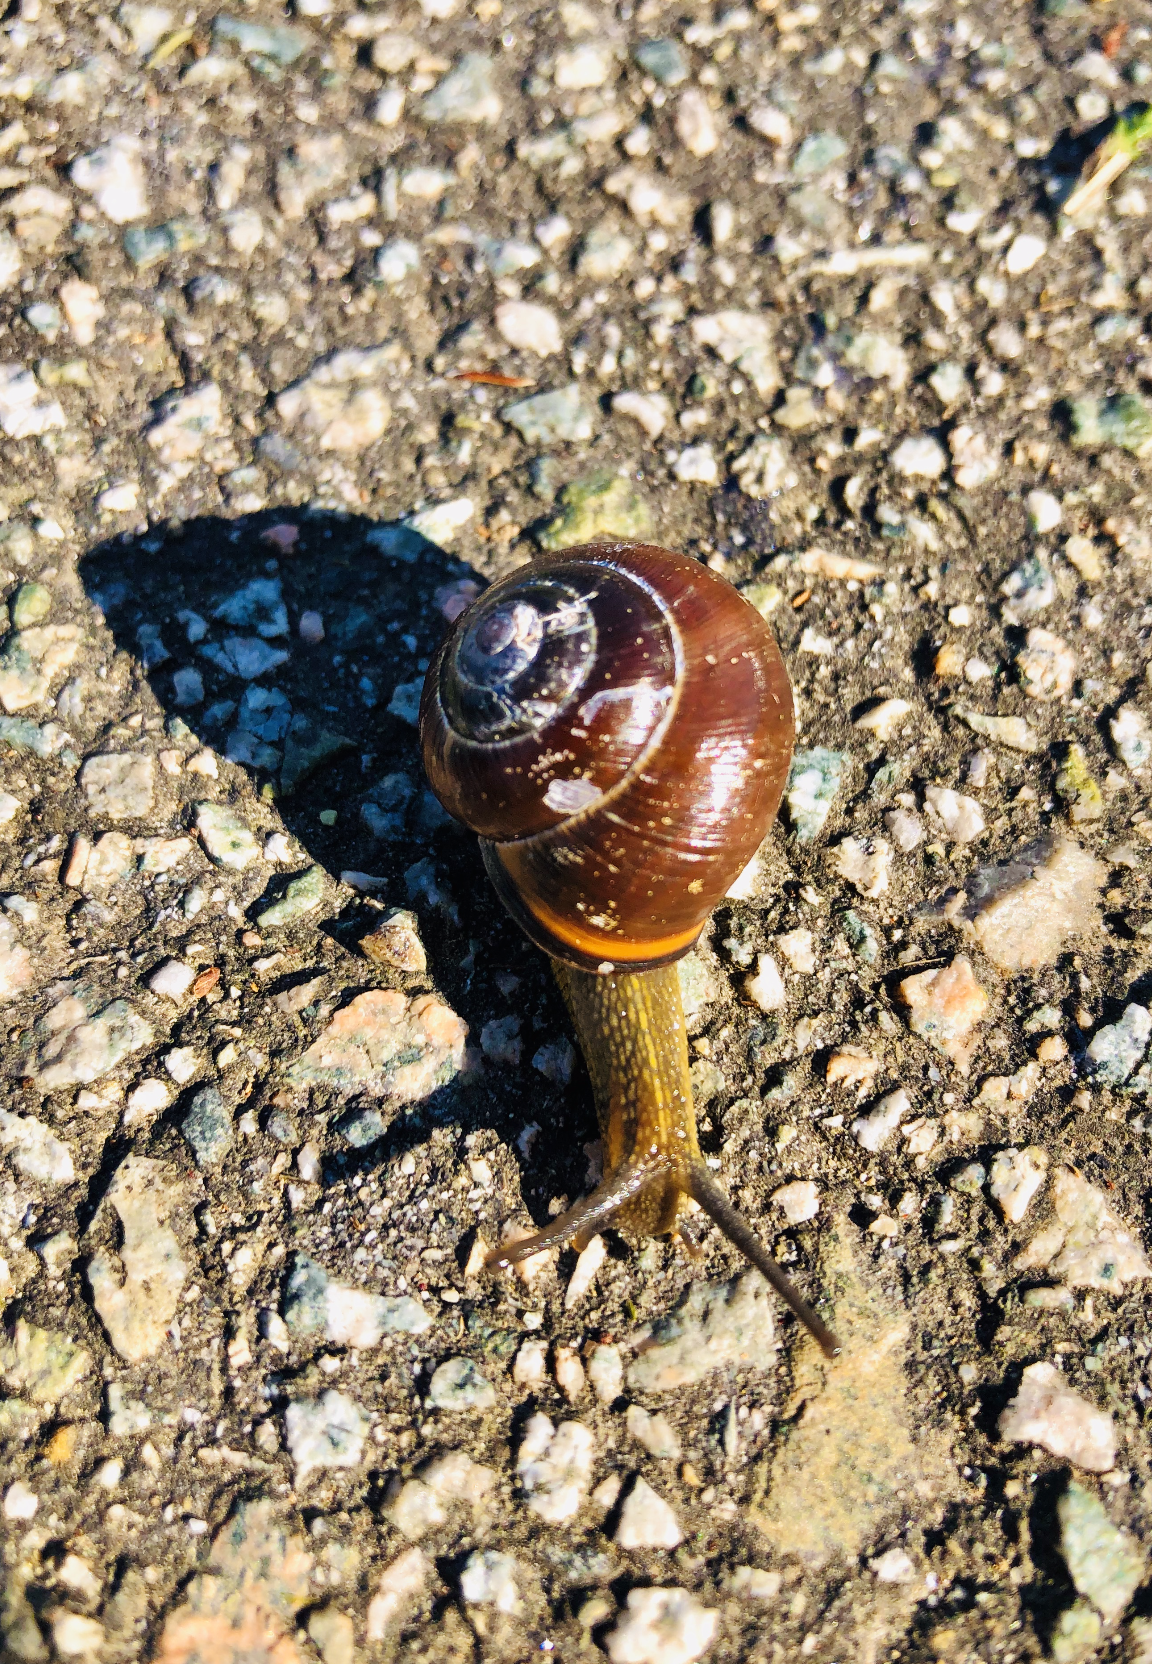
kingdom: Animalia
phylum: Mollusca
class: Gastropoda
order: Stylommatophora
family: Helicidae
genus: Cepaea
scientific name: Cepaea nemoralis
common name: Grovesnail
